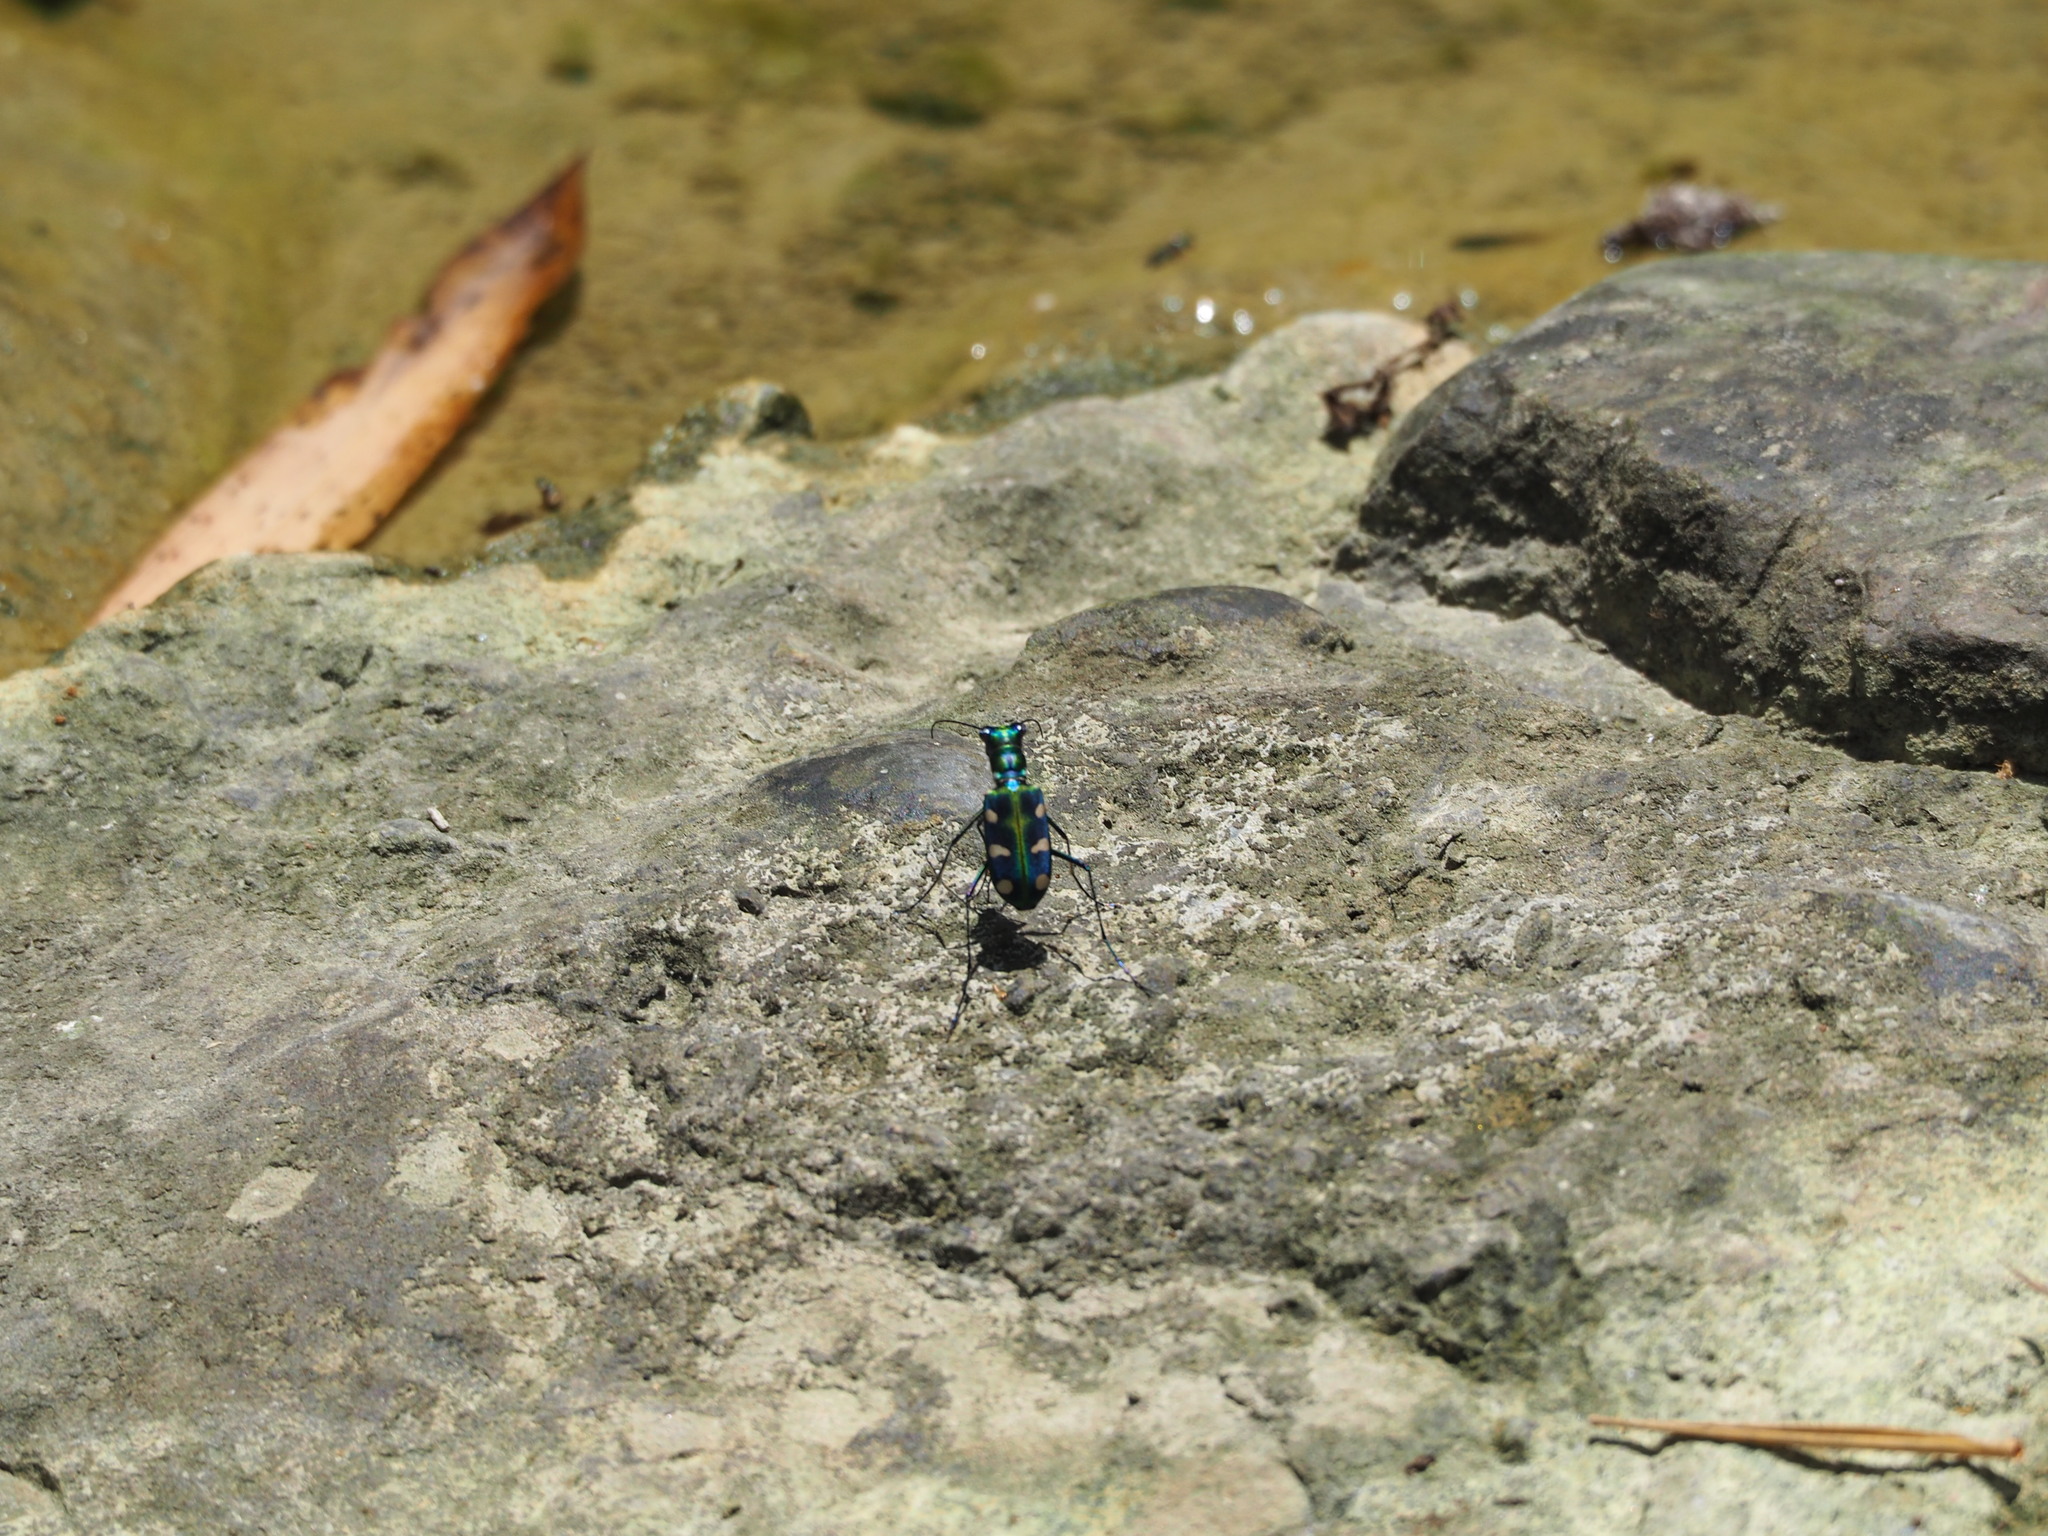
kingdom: Animalia
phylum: Arthropoda
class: Insecta
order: Coleoptera
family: Carabidae
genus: Cicindela
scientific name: Cicindela batesi
